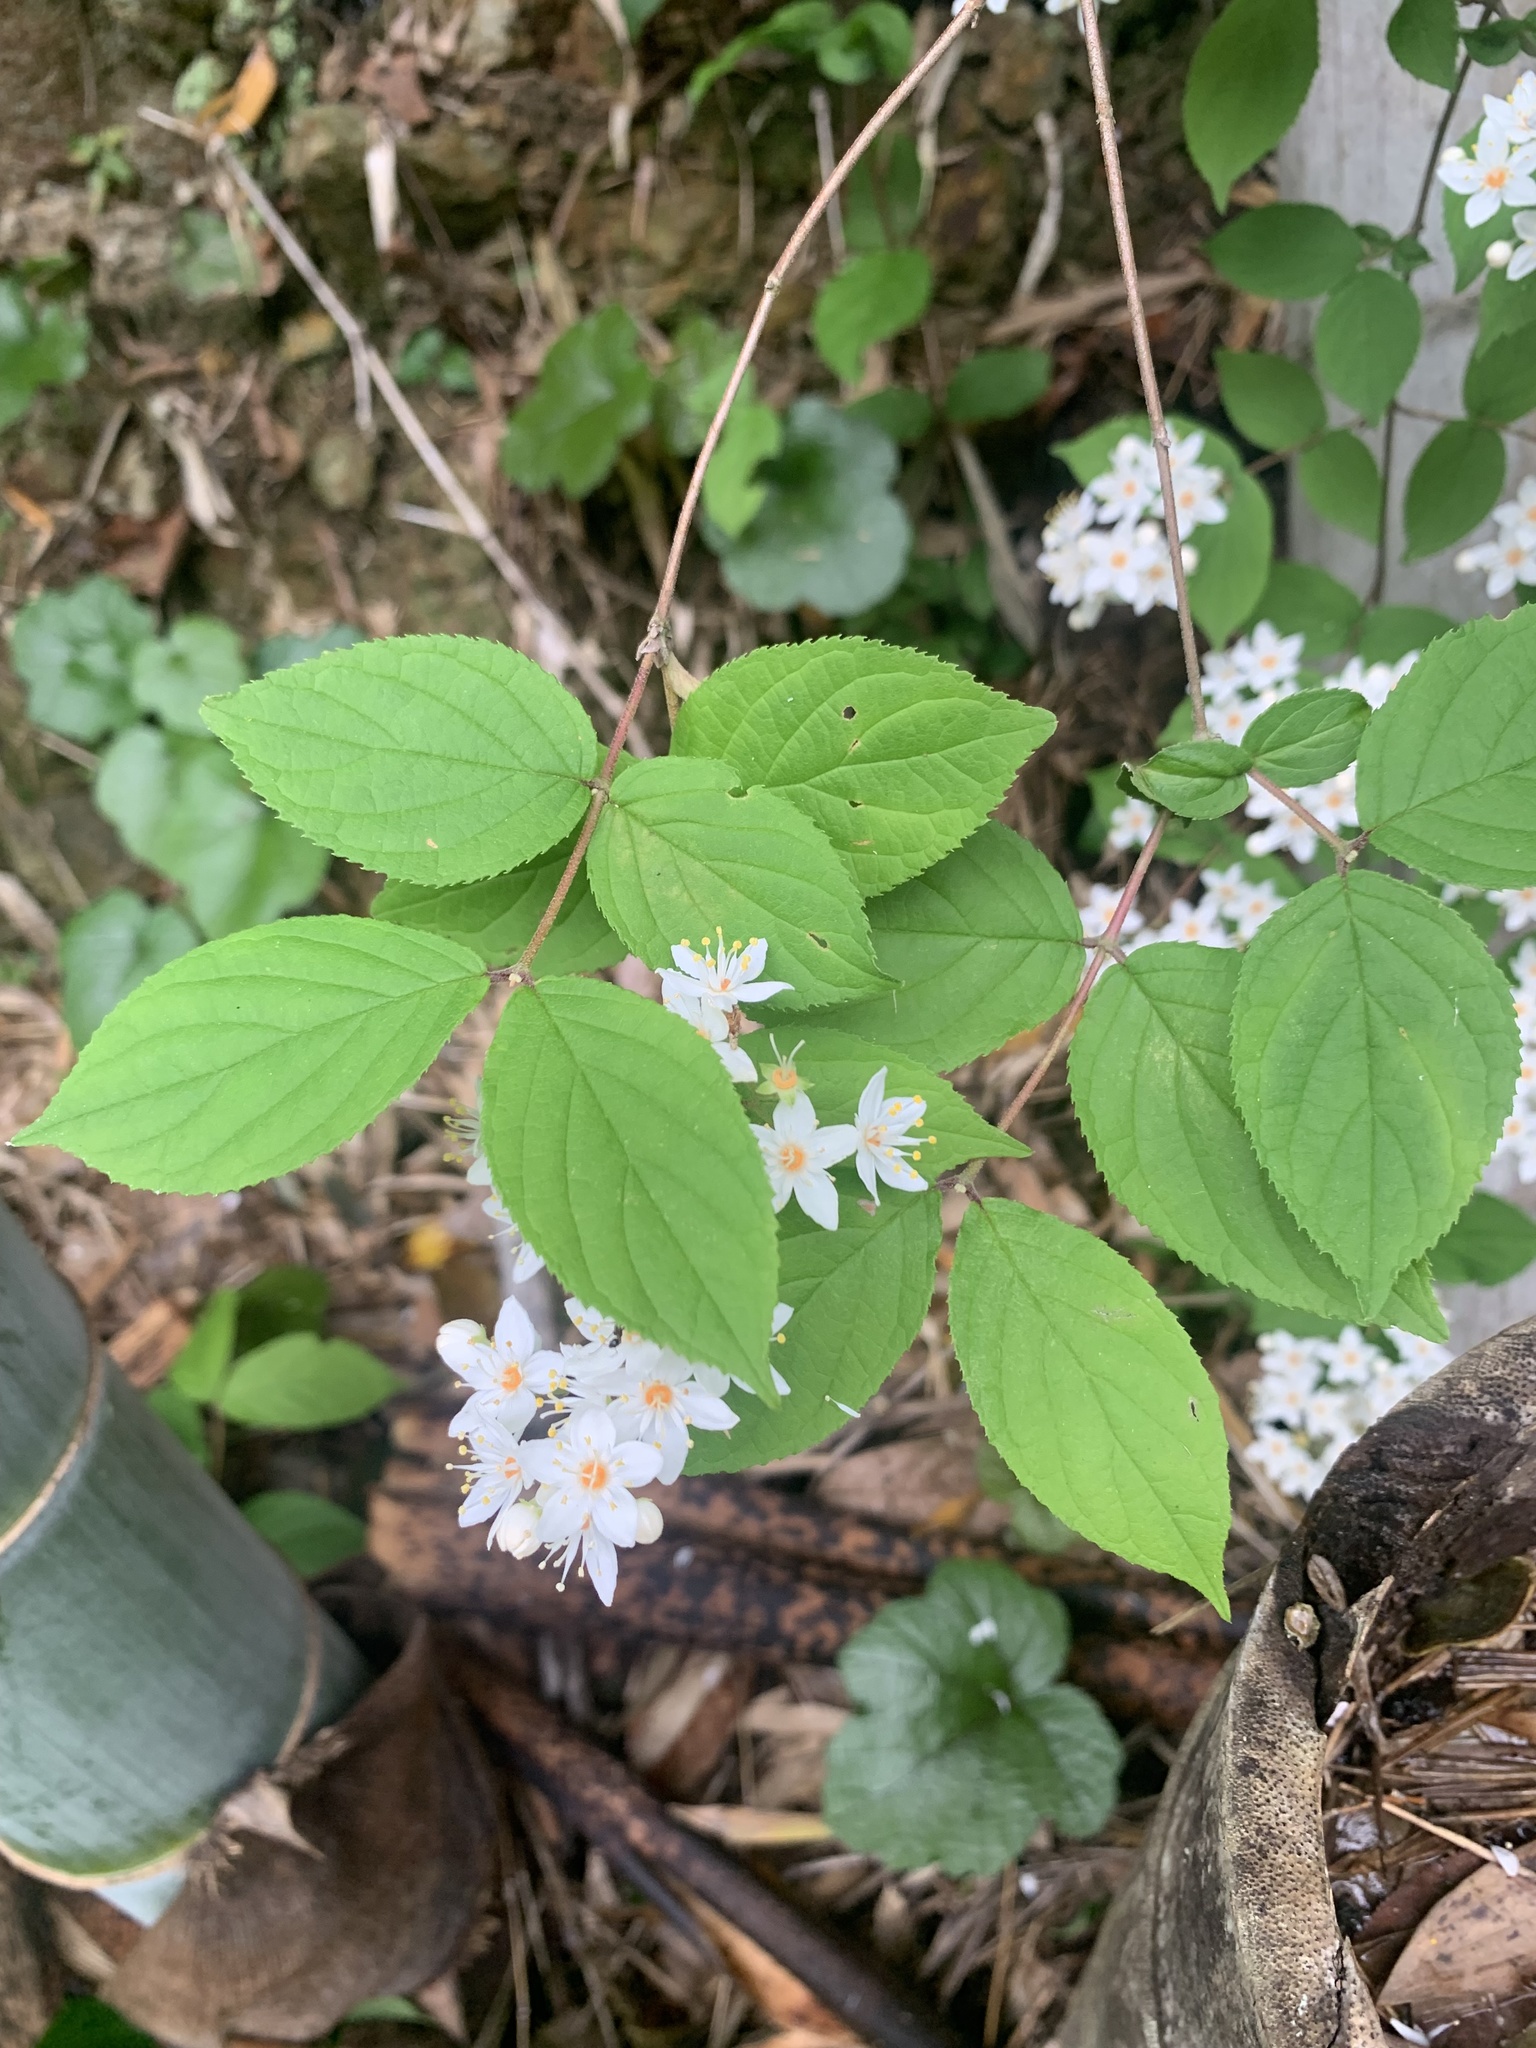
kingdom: Plantae
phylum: Tracheophyta
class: Magnoliopsida
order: Cornales
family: Hydrangeaceae
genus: Deutzia
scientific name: Deutzia scabra
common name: Deutzia
